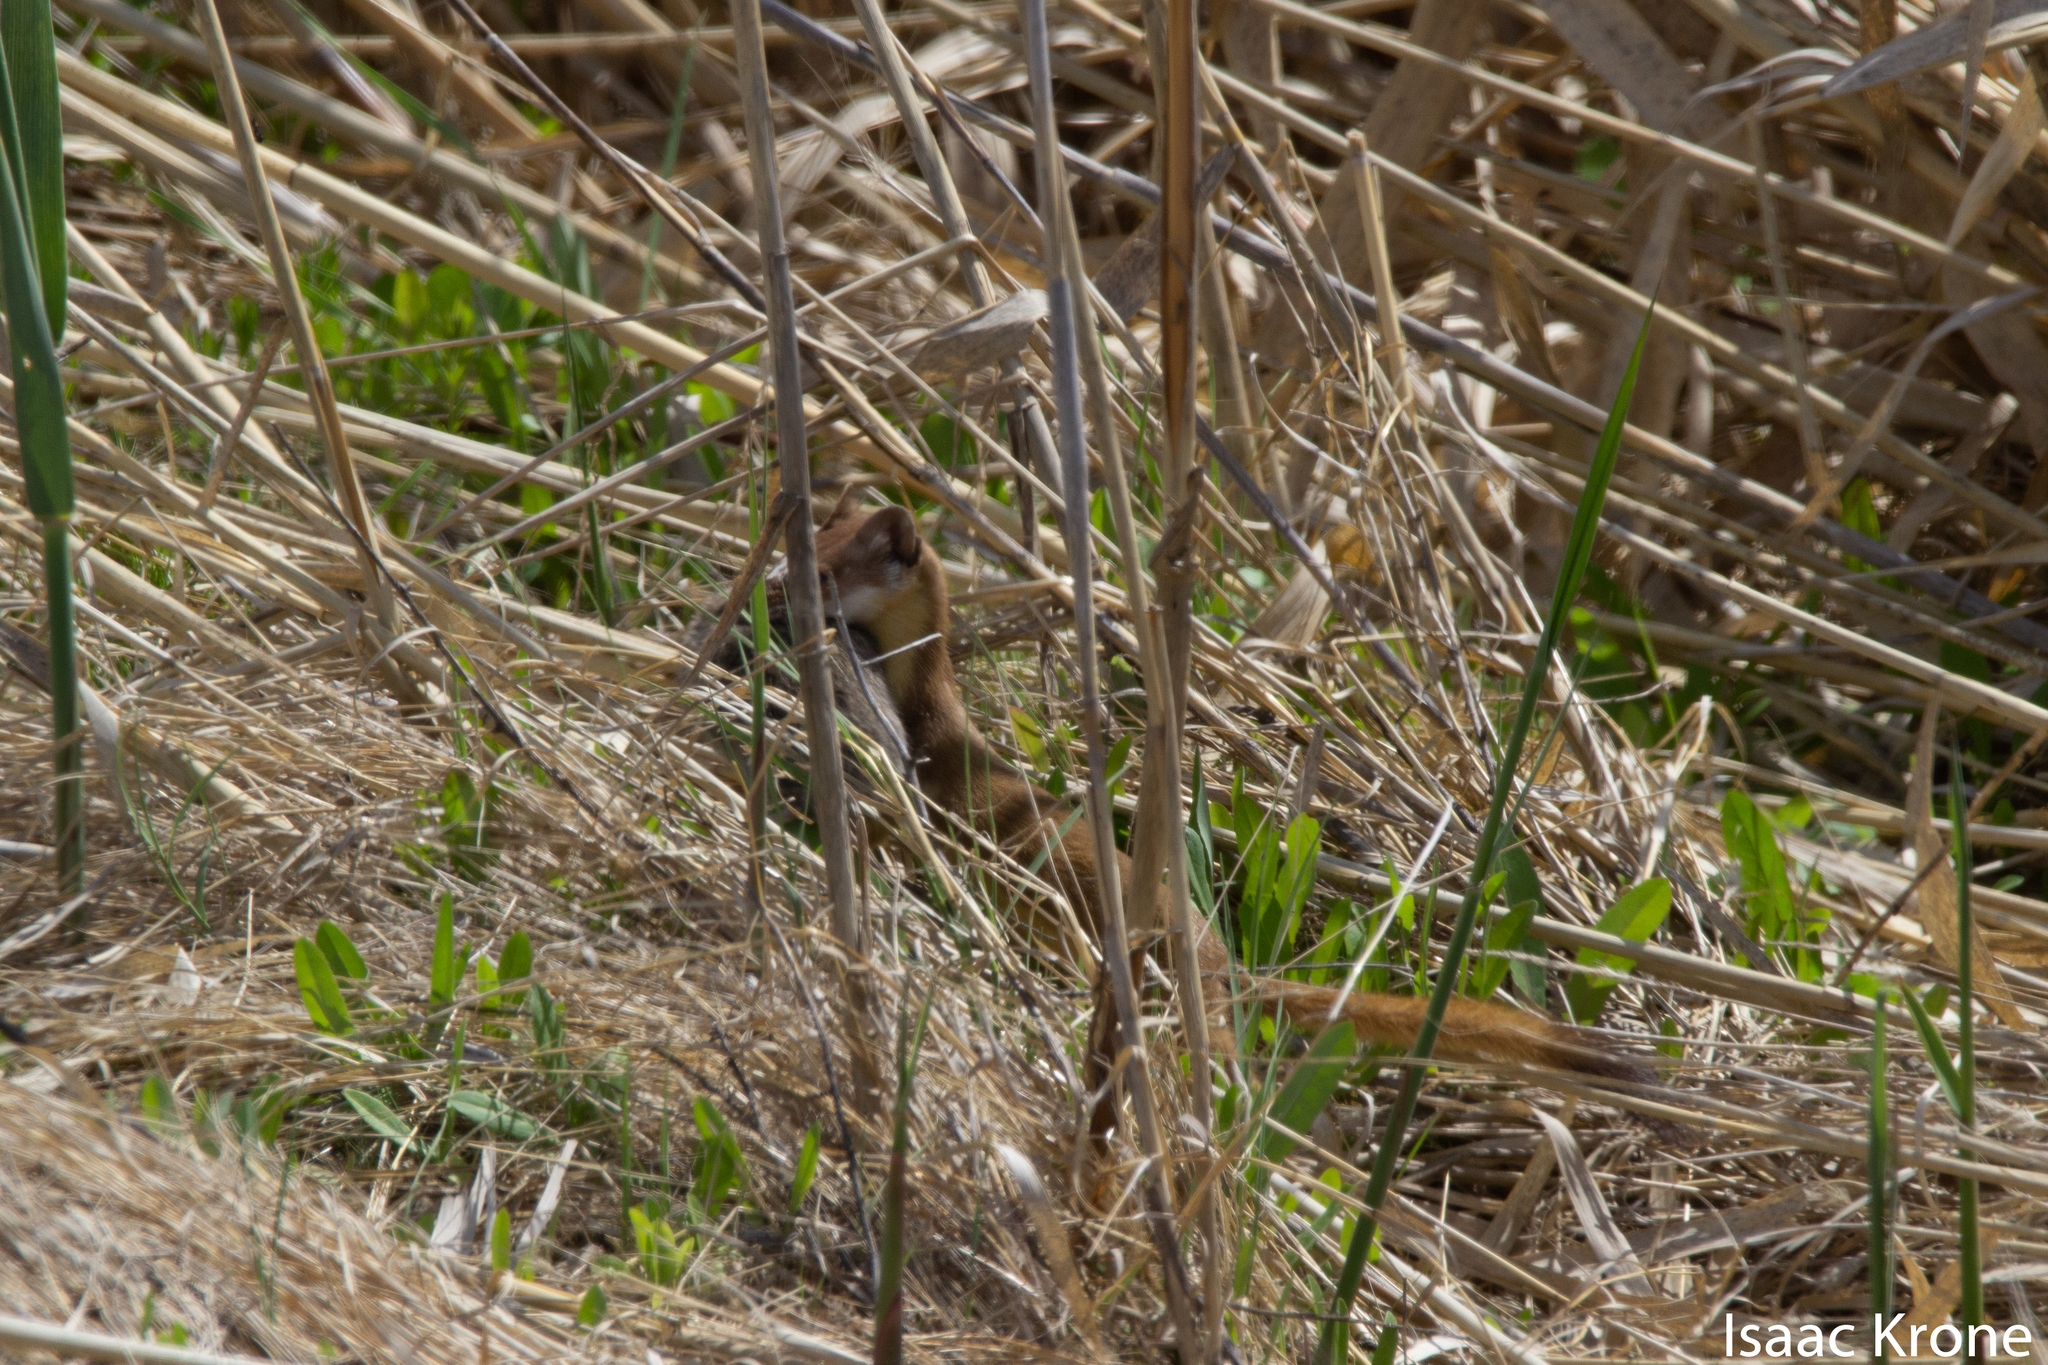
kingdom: Animalia
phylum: Chordata
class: Mammalia
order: Carnivora
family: Mustelidae
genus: Mustela
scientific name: Mustela
